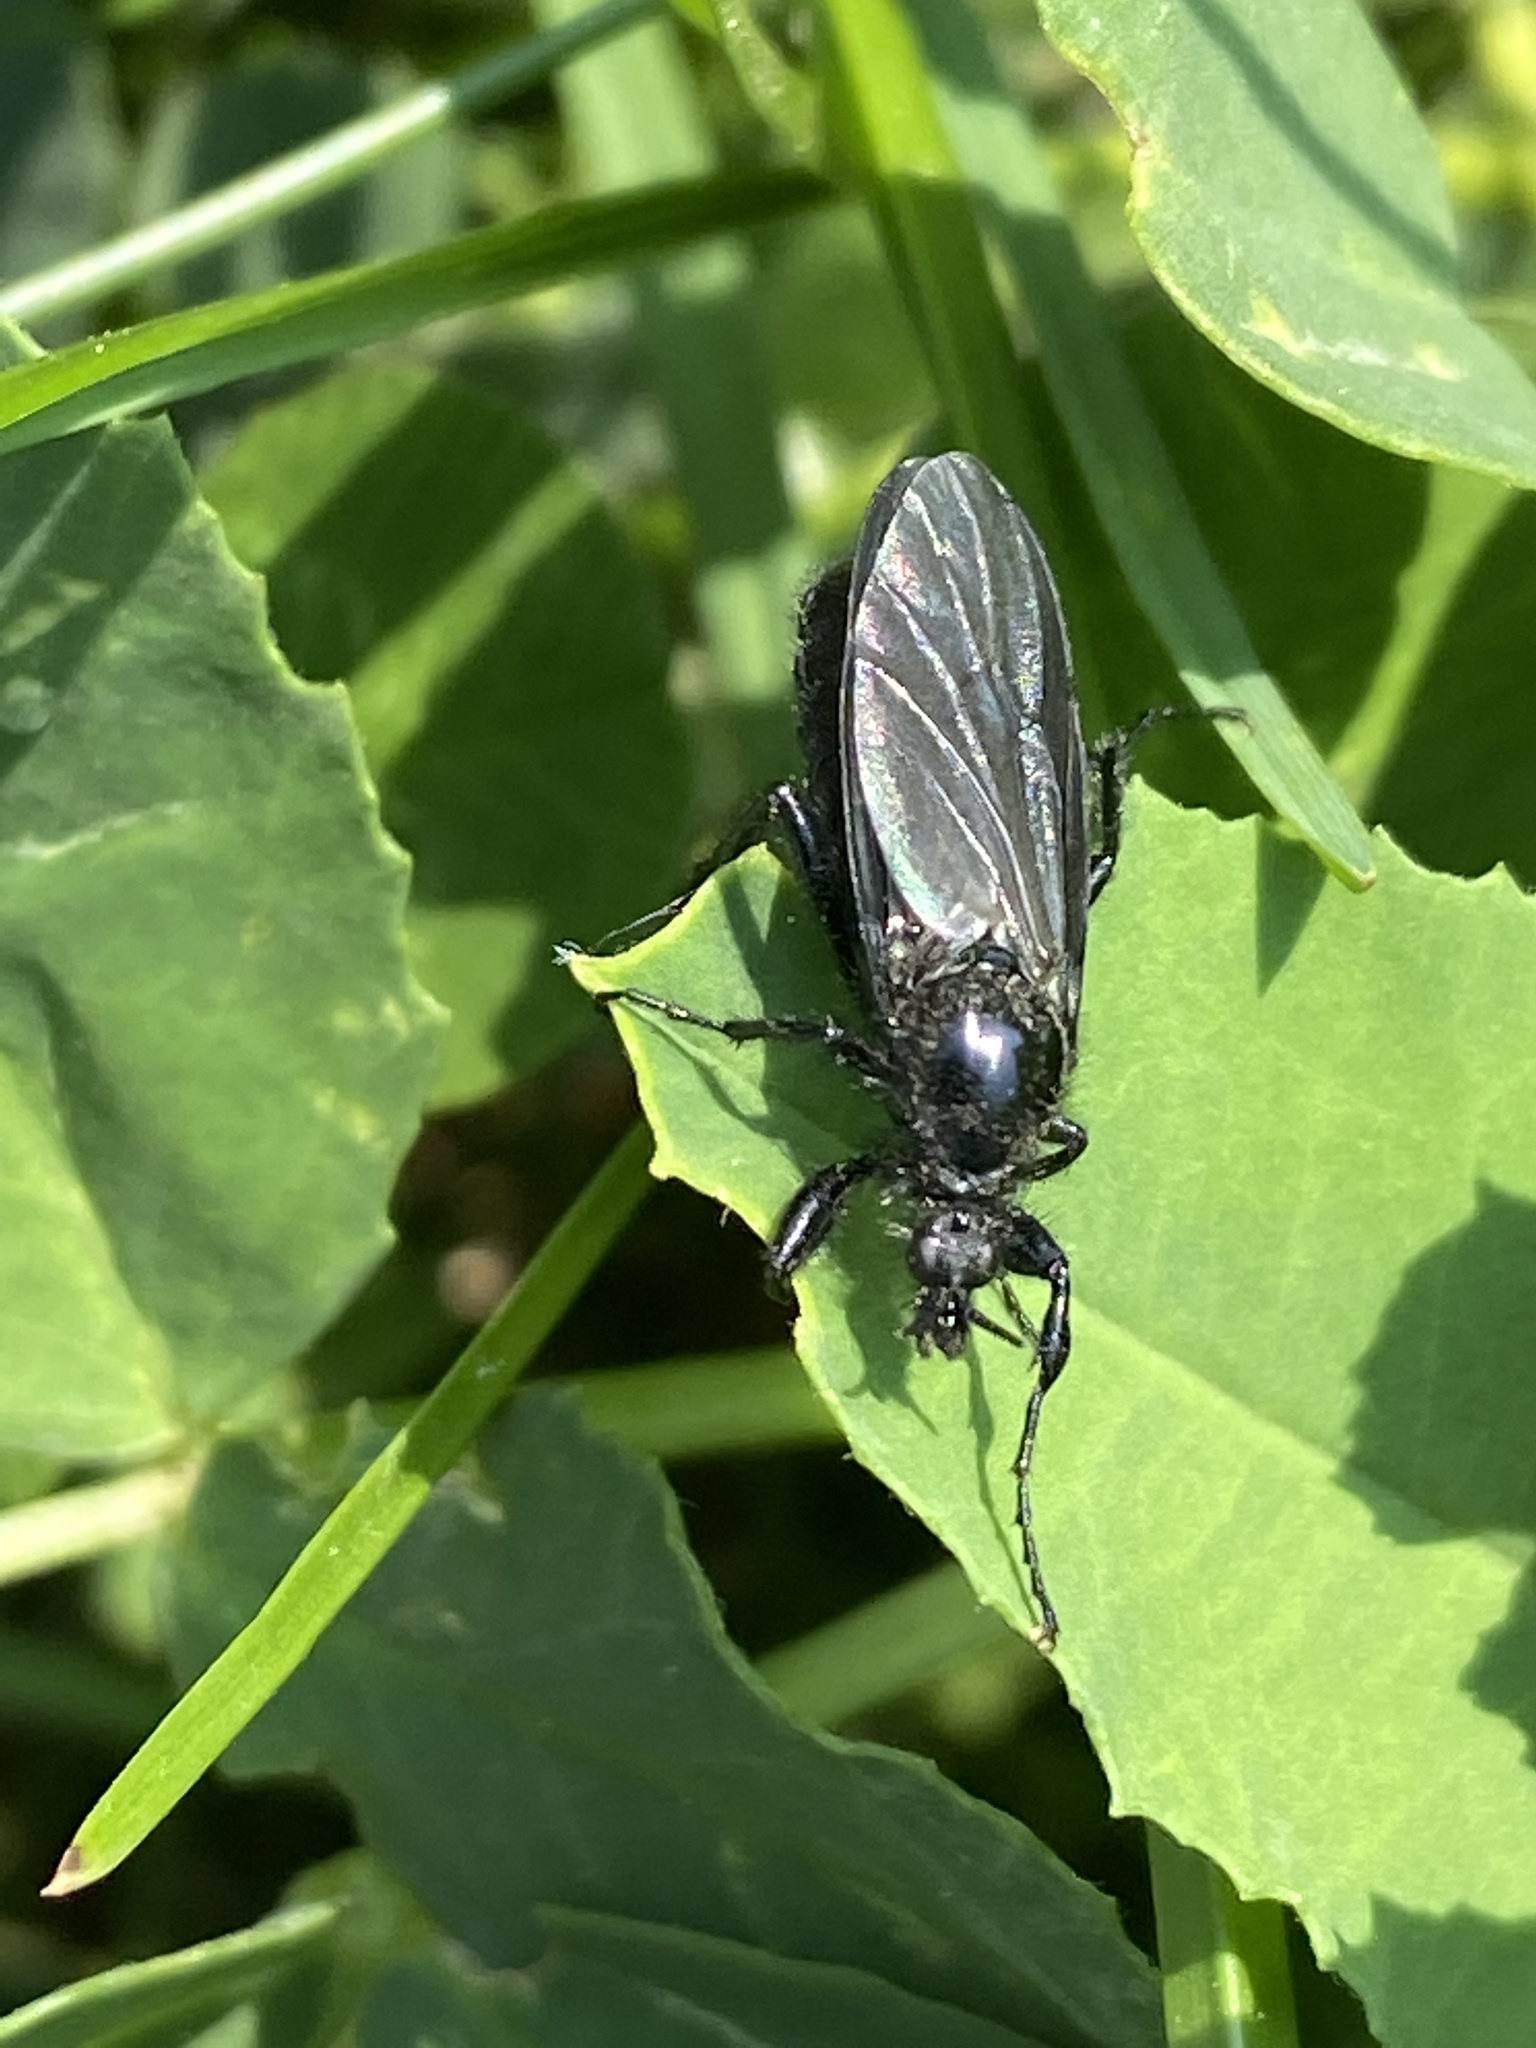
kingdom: Animalia
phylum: Arthropoda
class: Insecta
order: Diptera
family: Bibionidae
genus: Bibio
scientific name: Bibio marci
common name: St marks fly
